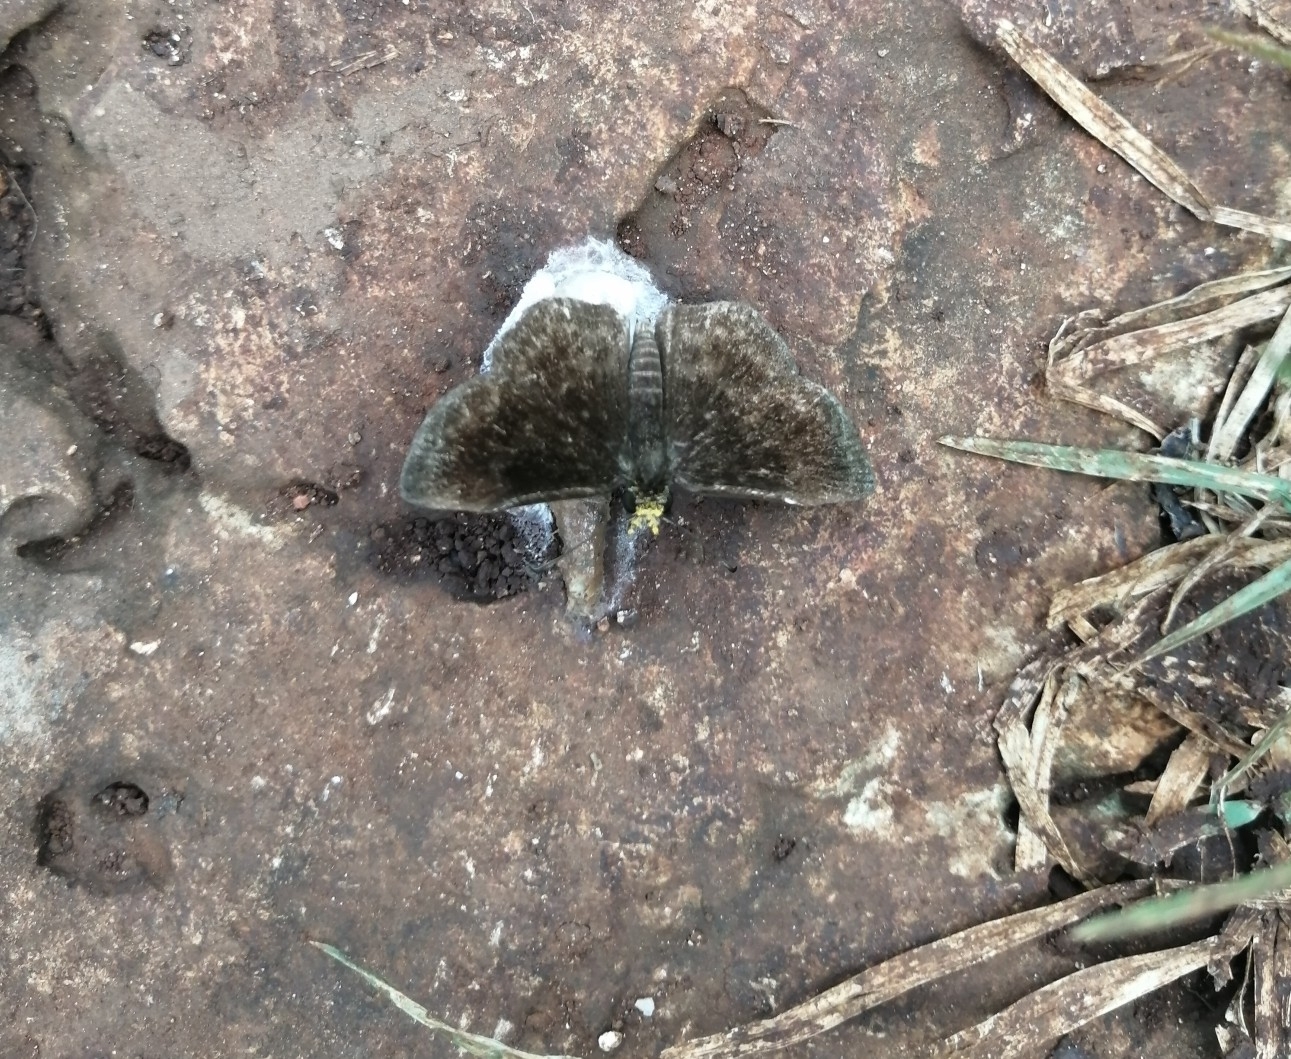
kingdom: Animalia
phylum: Arthropoda
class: Insecta
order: Lepidoptera
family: Hesperiidae
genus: Staphylus
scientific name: Staphylus vulgata
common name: Golden-snouted sootywing
